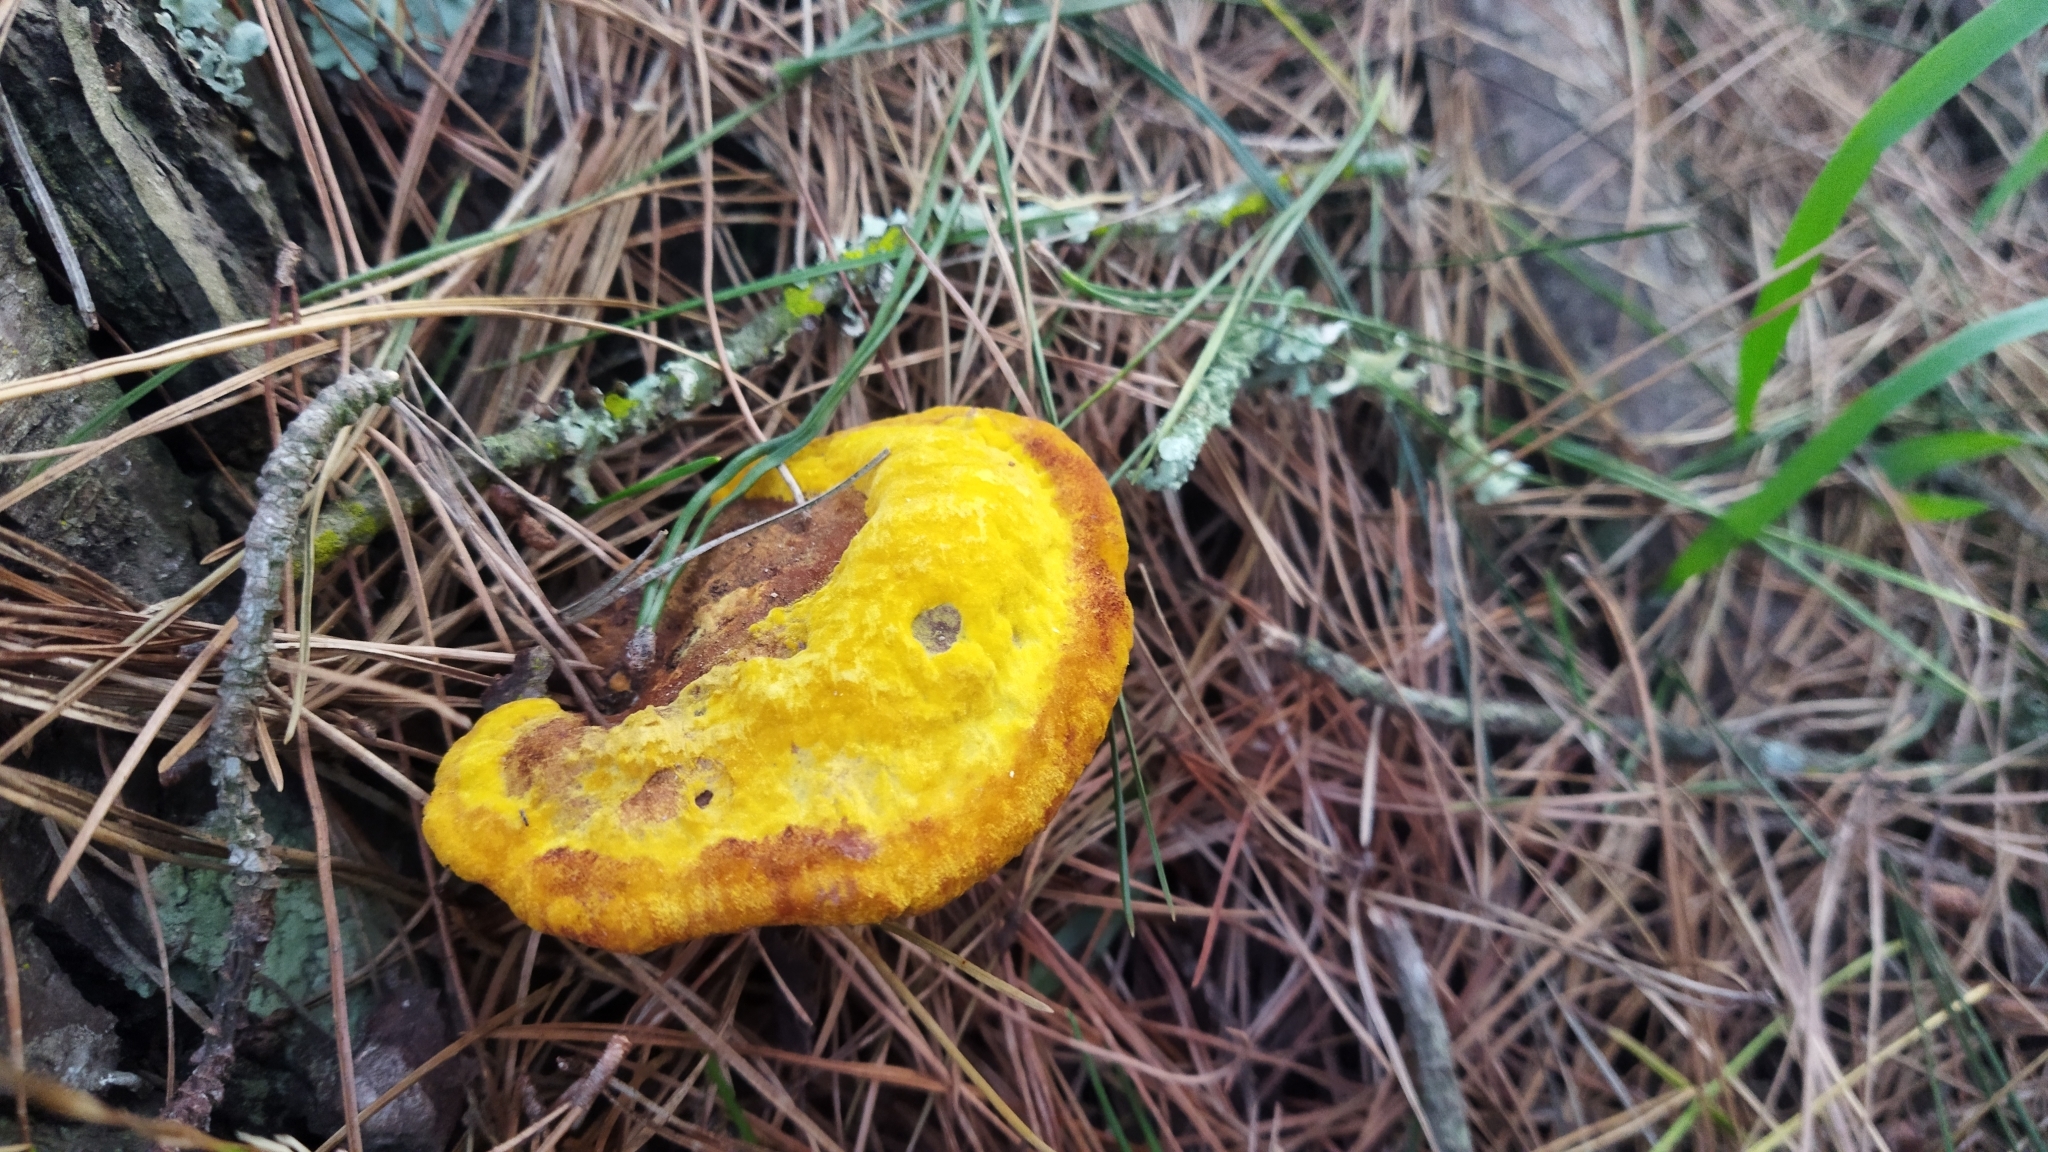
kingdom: Fungi
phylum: Basidiomycota
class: Agaricomycetes
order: Polyporales
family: Laetiporaceae
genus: Phaeolus
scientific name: Phaeolus schweinitzii
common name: Dyer's mazegill
